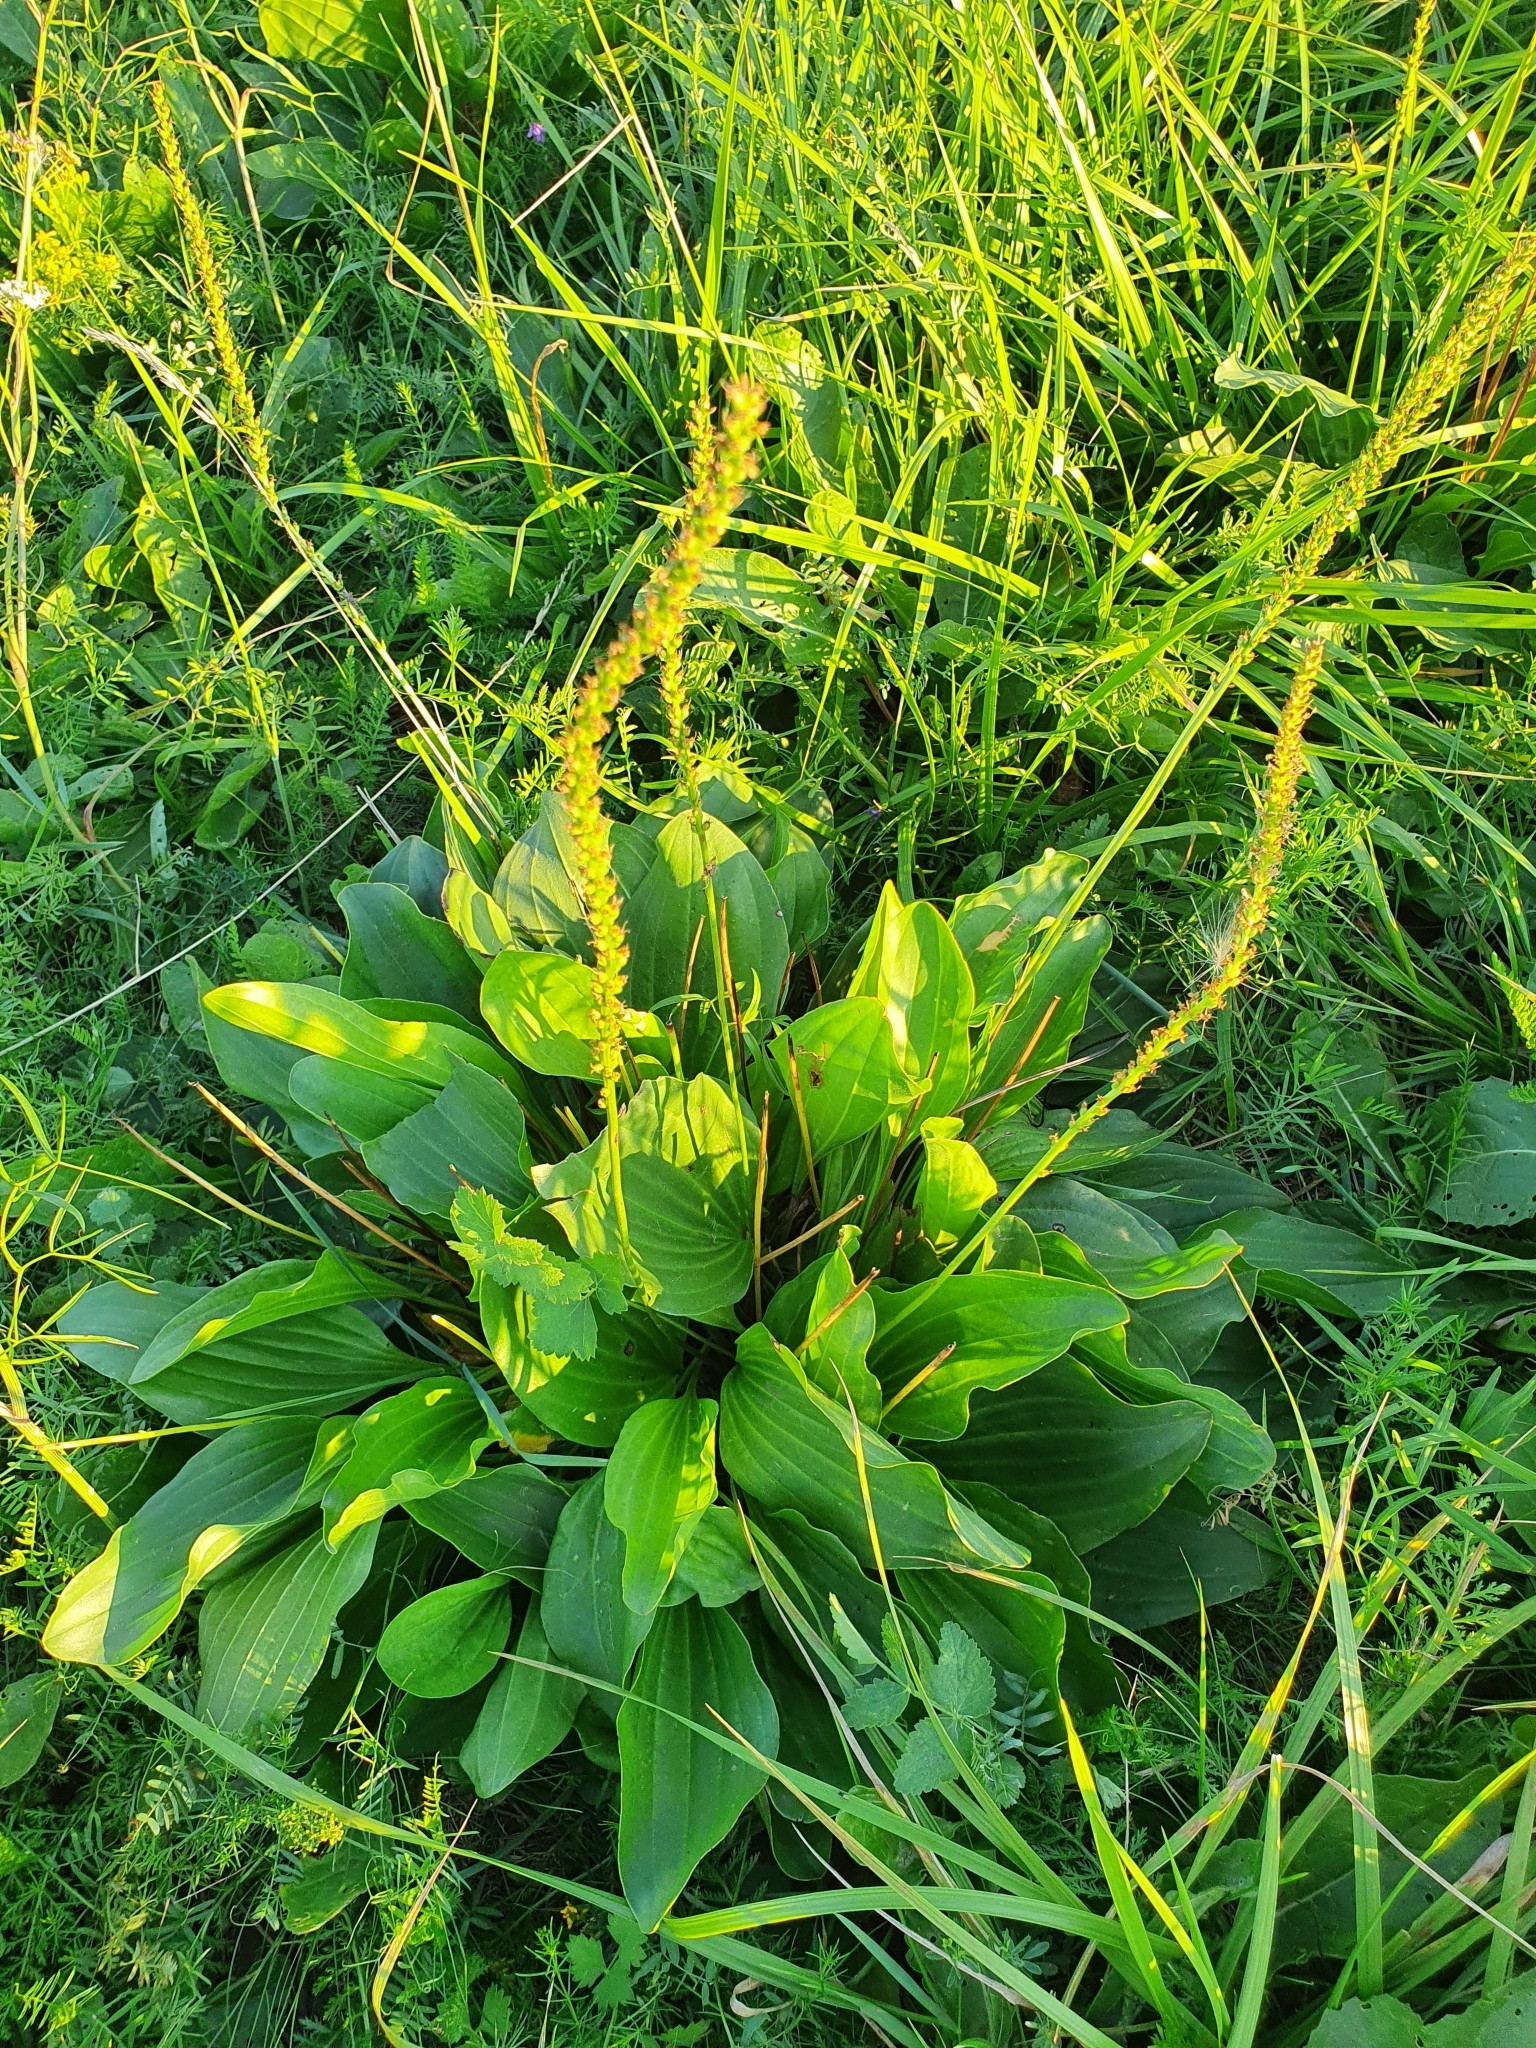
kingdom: Plantae
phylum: Tracheophyta
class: Magnoliopsida
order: Lamiales
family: Plantaginaceae
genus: Plantago
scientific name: Plantago cornuti
